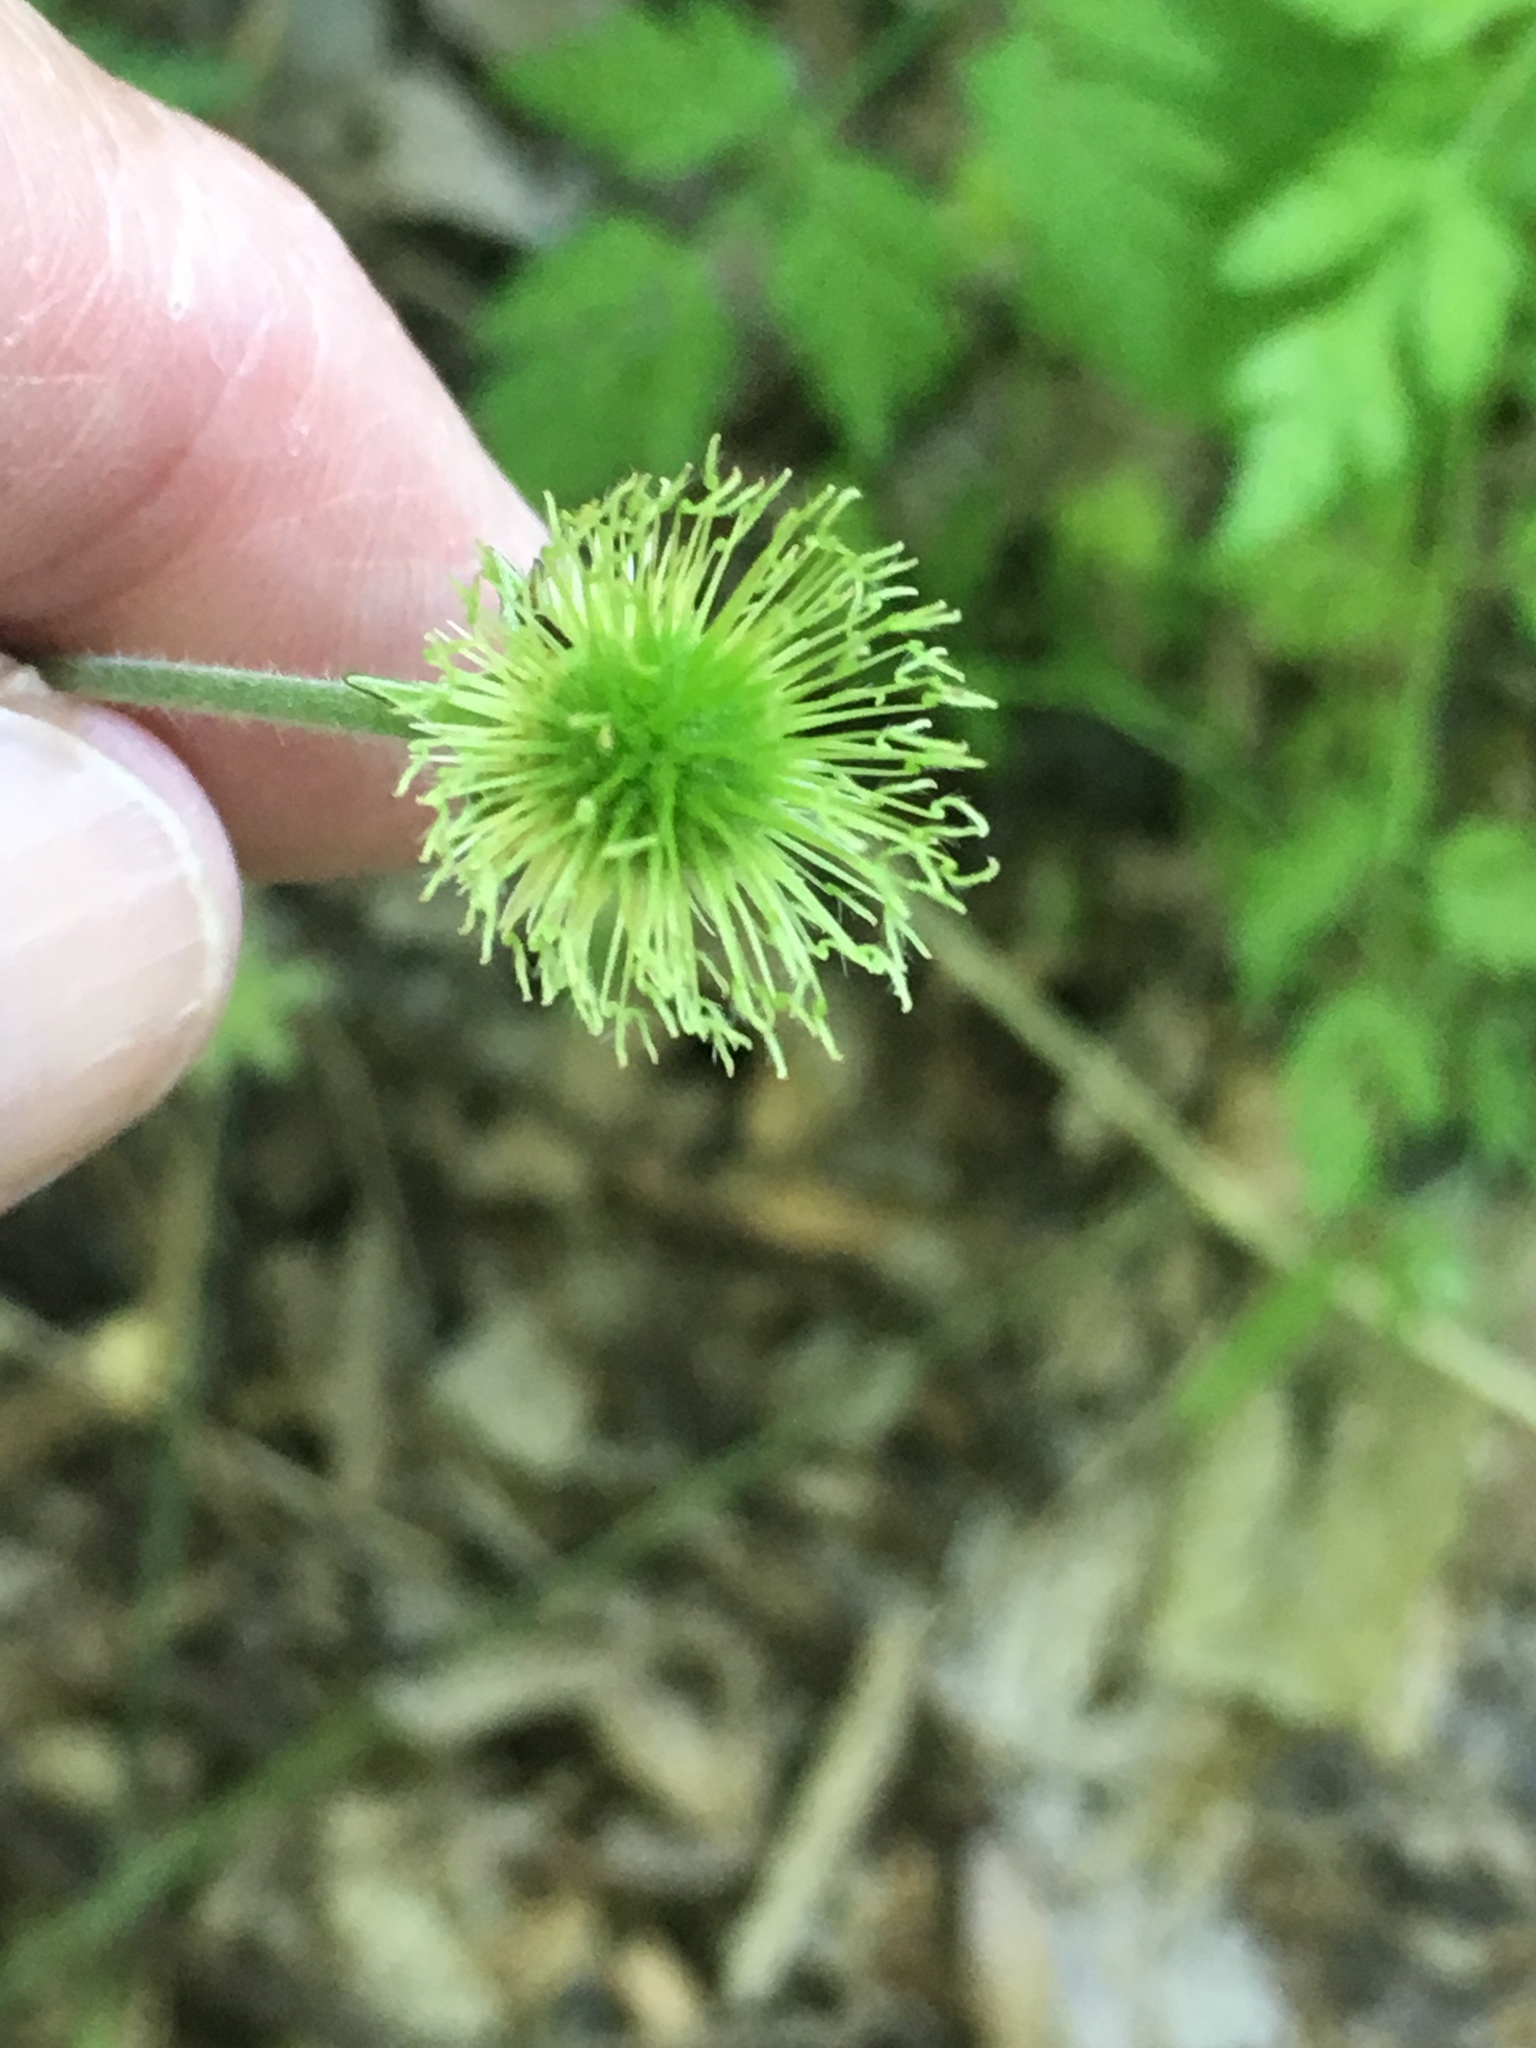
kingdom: Plantae
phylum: Tracheophyta
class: Magnoliopsida
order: Rosales
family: Rosaceae
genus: Geum
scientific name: Geum canadense
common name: White avens
